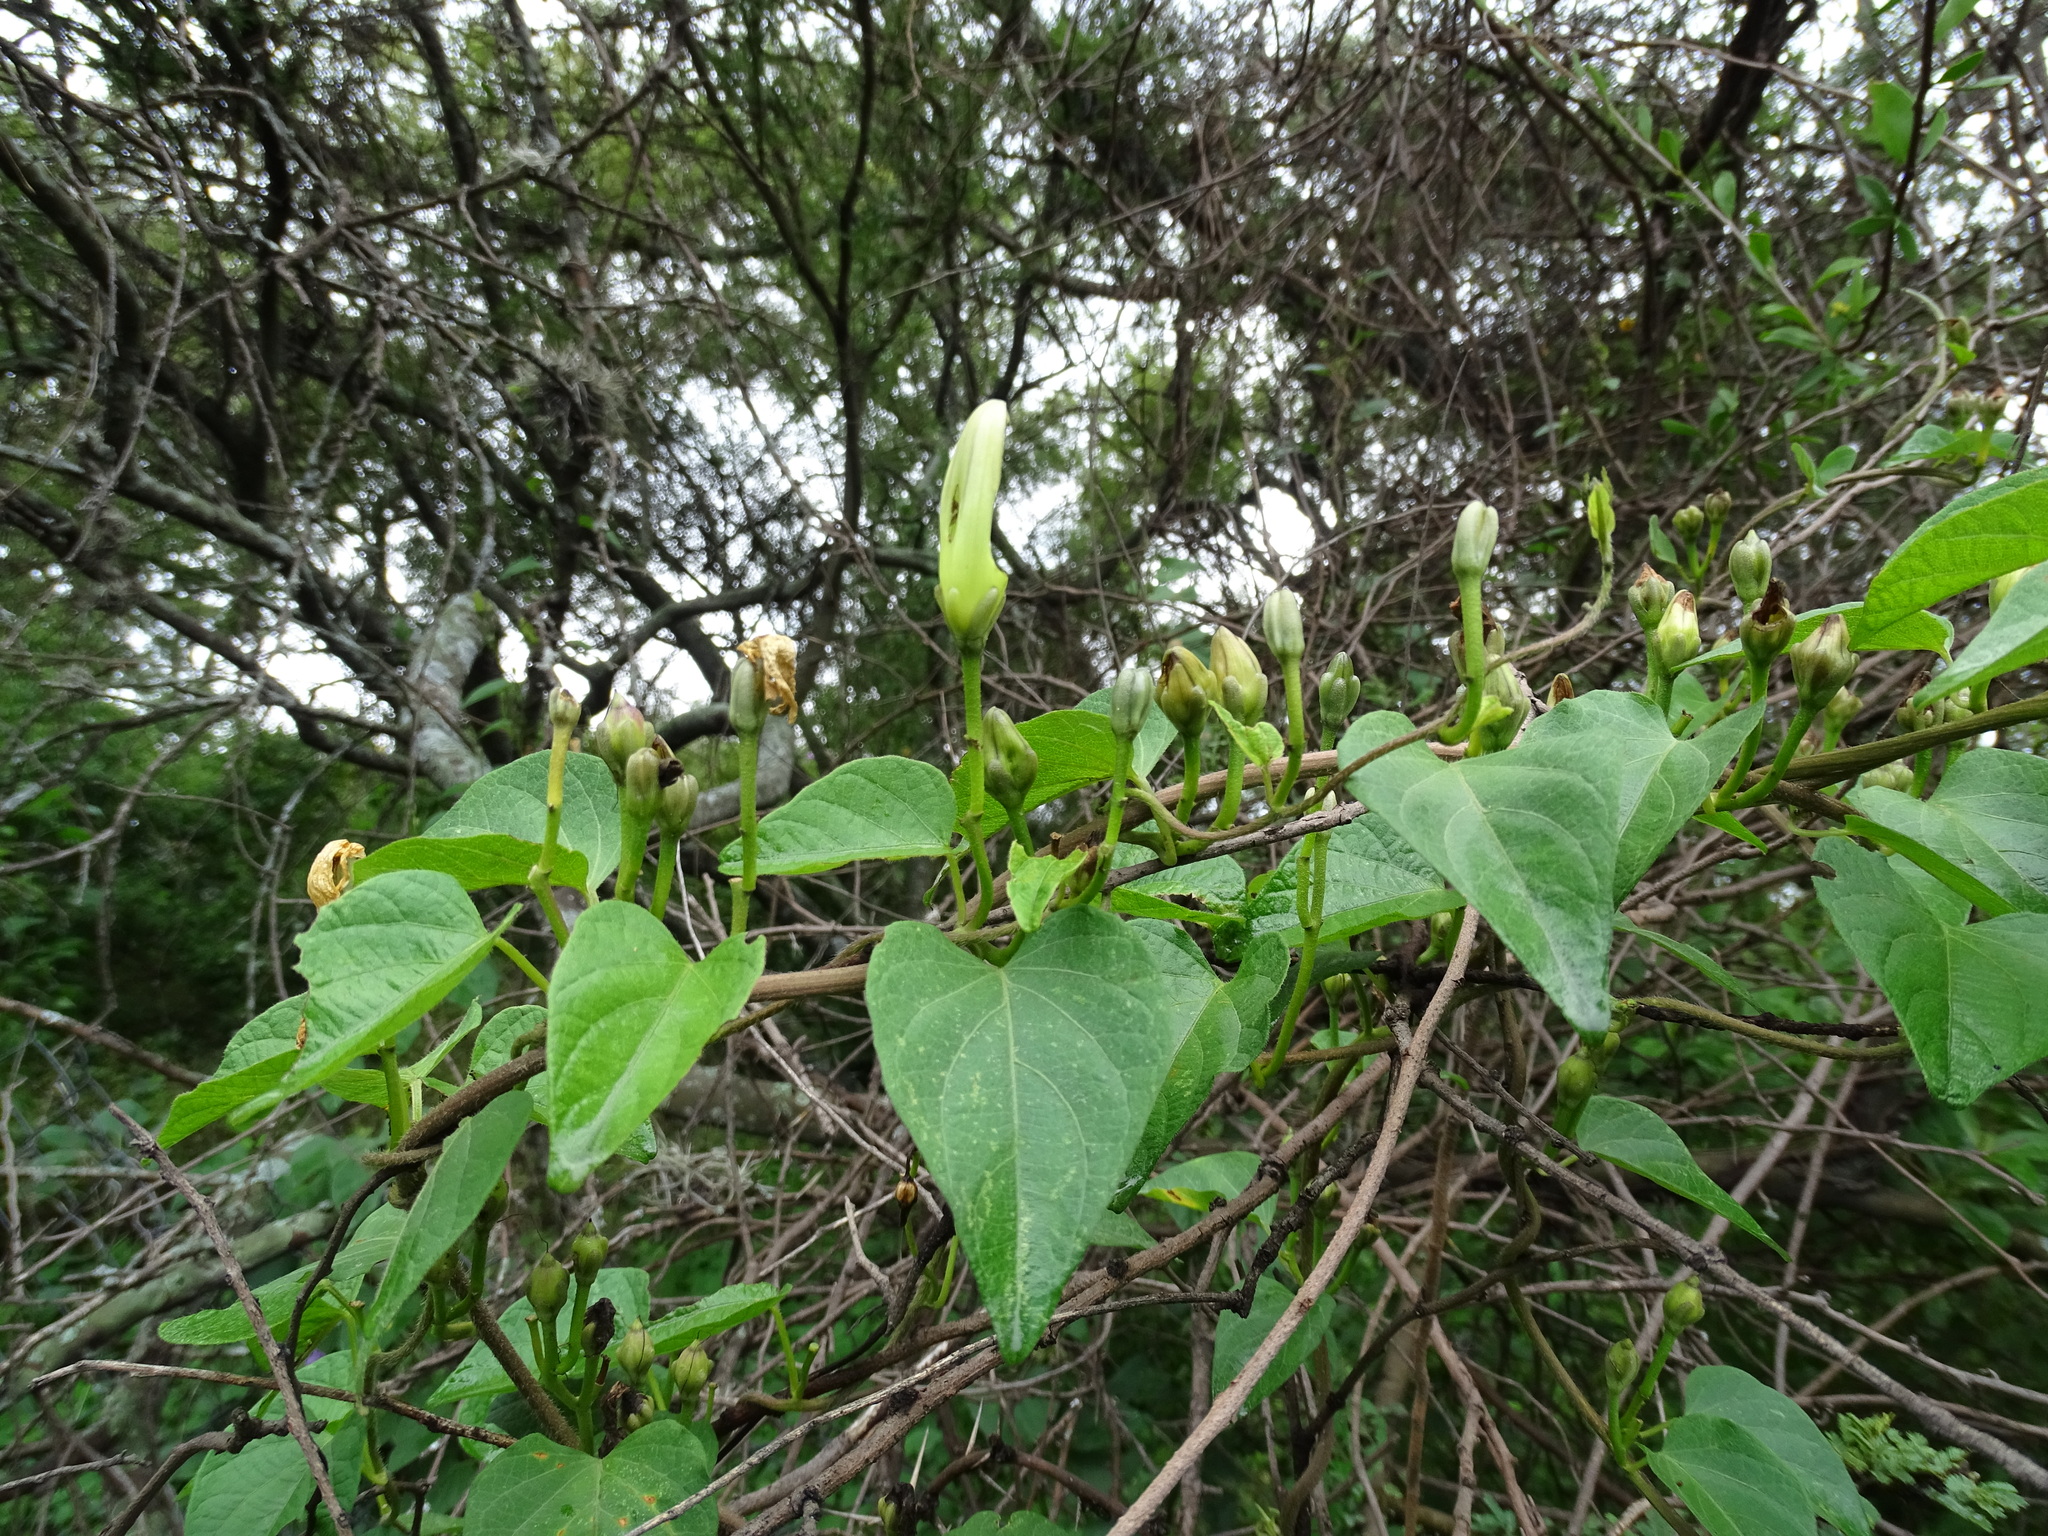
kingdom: Plantae
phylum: Tracheophyta
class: Magnoliopsida
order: Solanales
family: Convolvulaceae
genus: Ipomoea
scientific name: Ipomoea proxima
